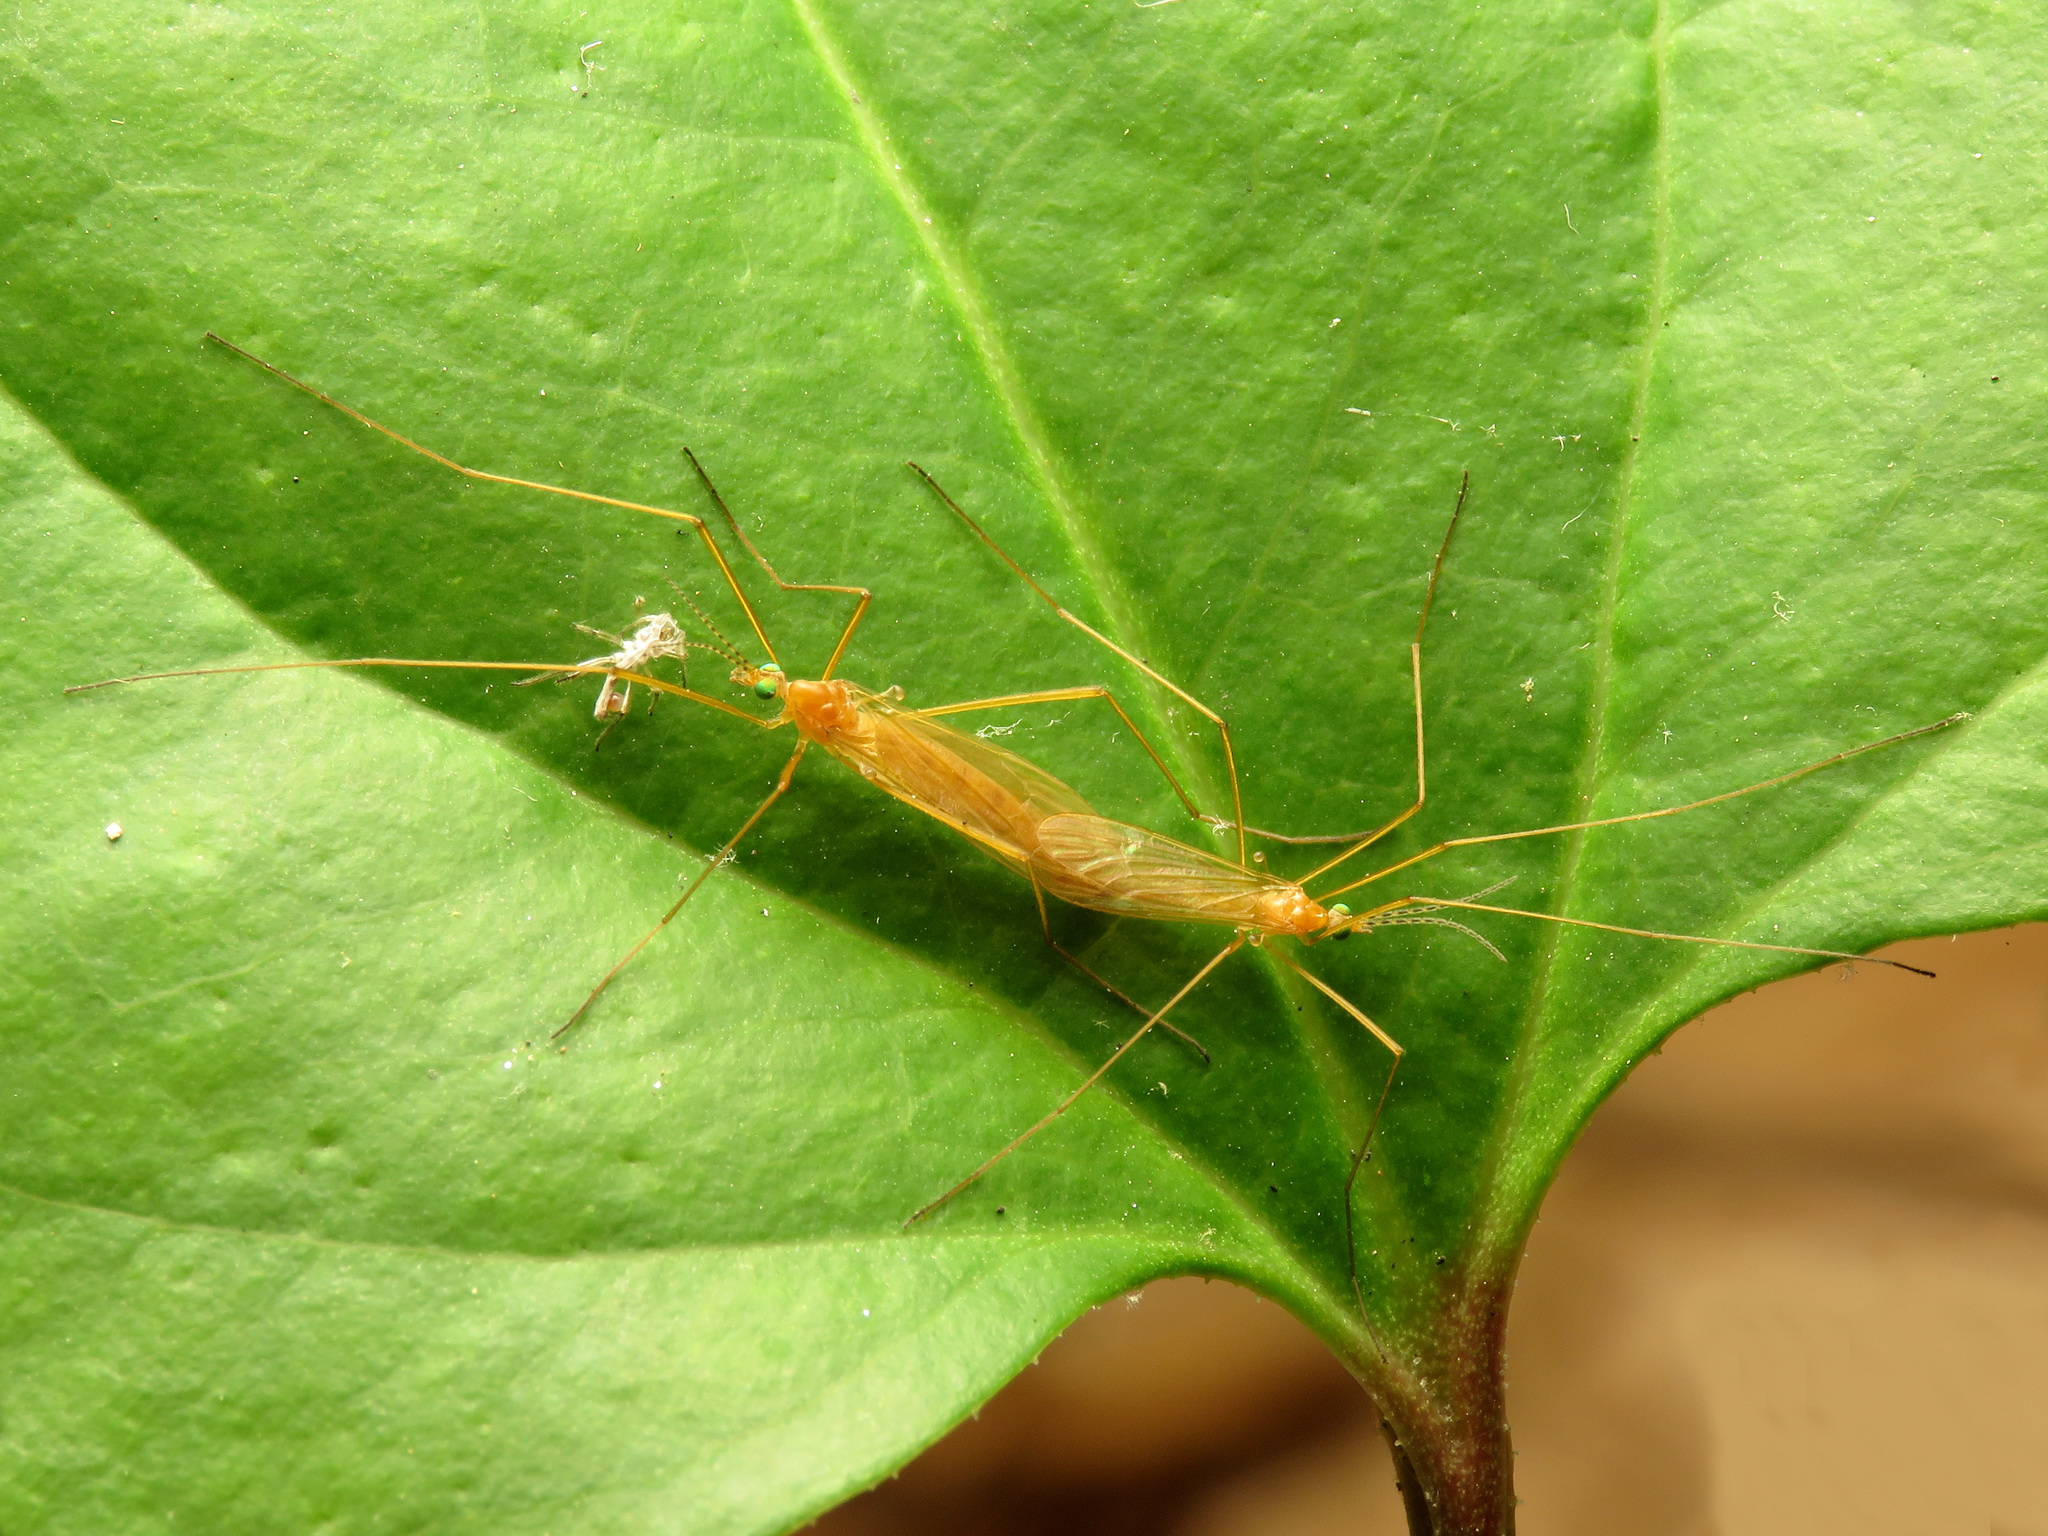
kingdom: Animalia
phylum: Arthropoda
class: Insecta
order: Diptera
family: Limoniidae
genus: Atarba
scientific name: Atarba picticornis
